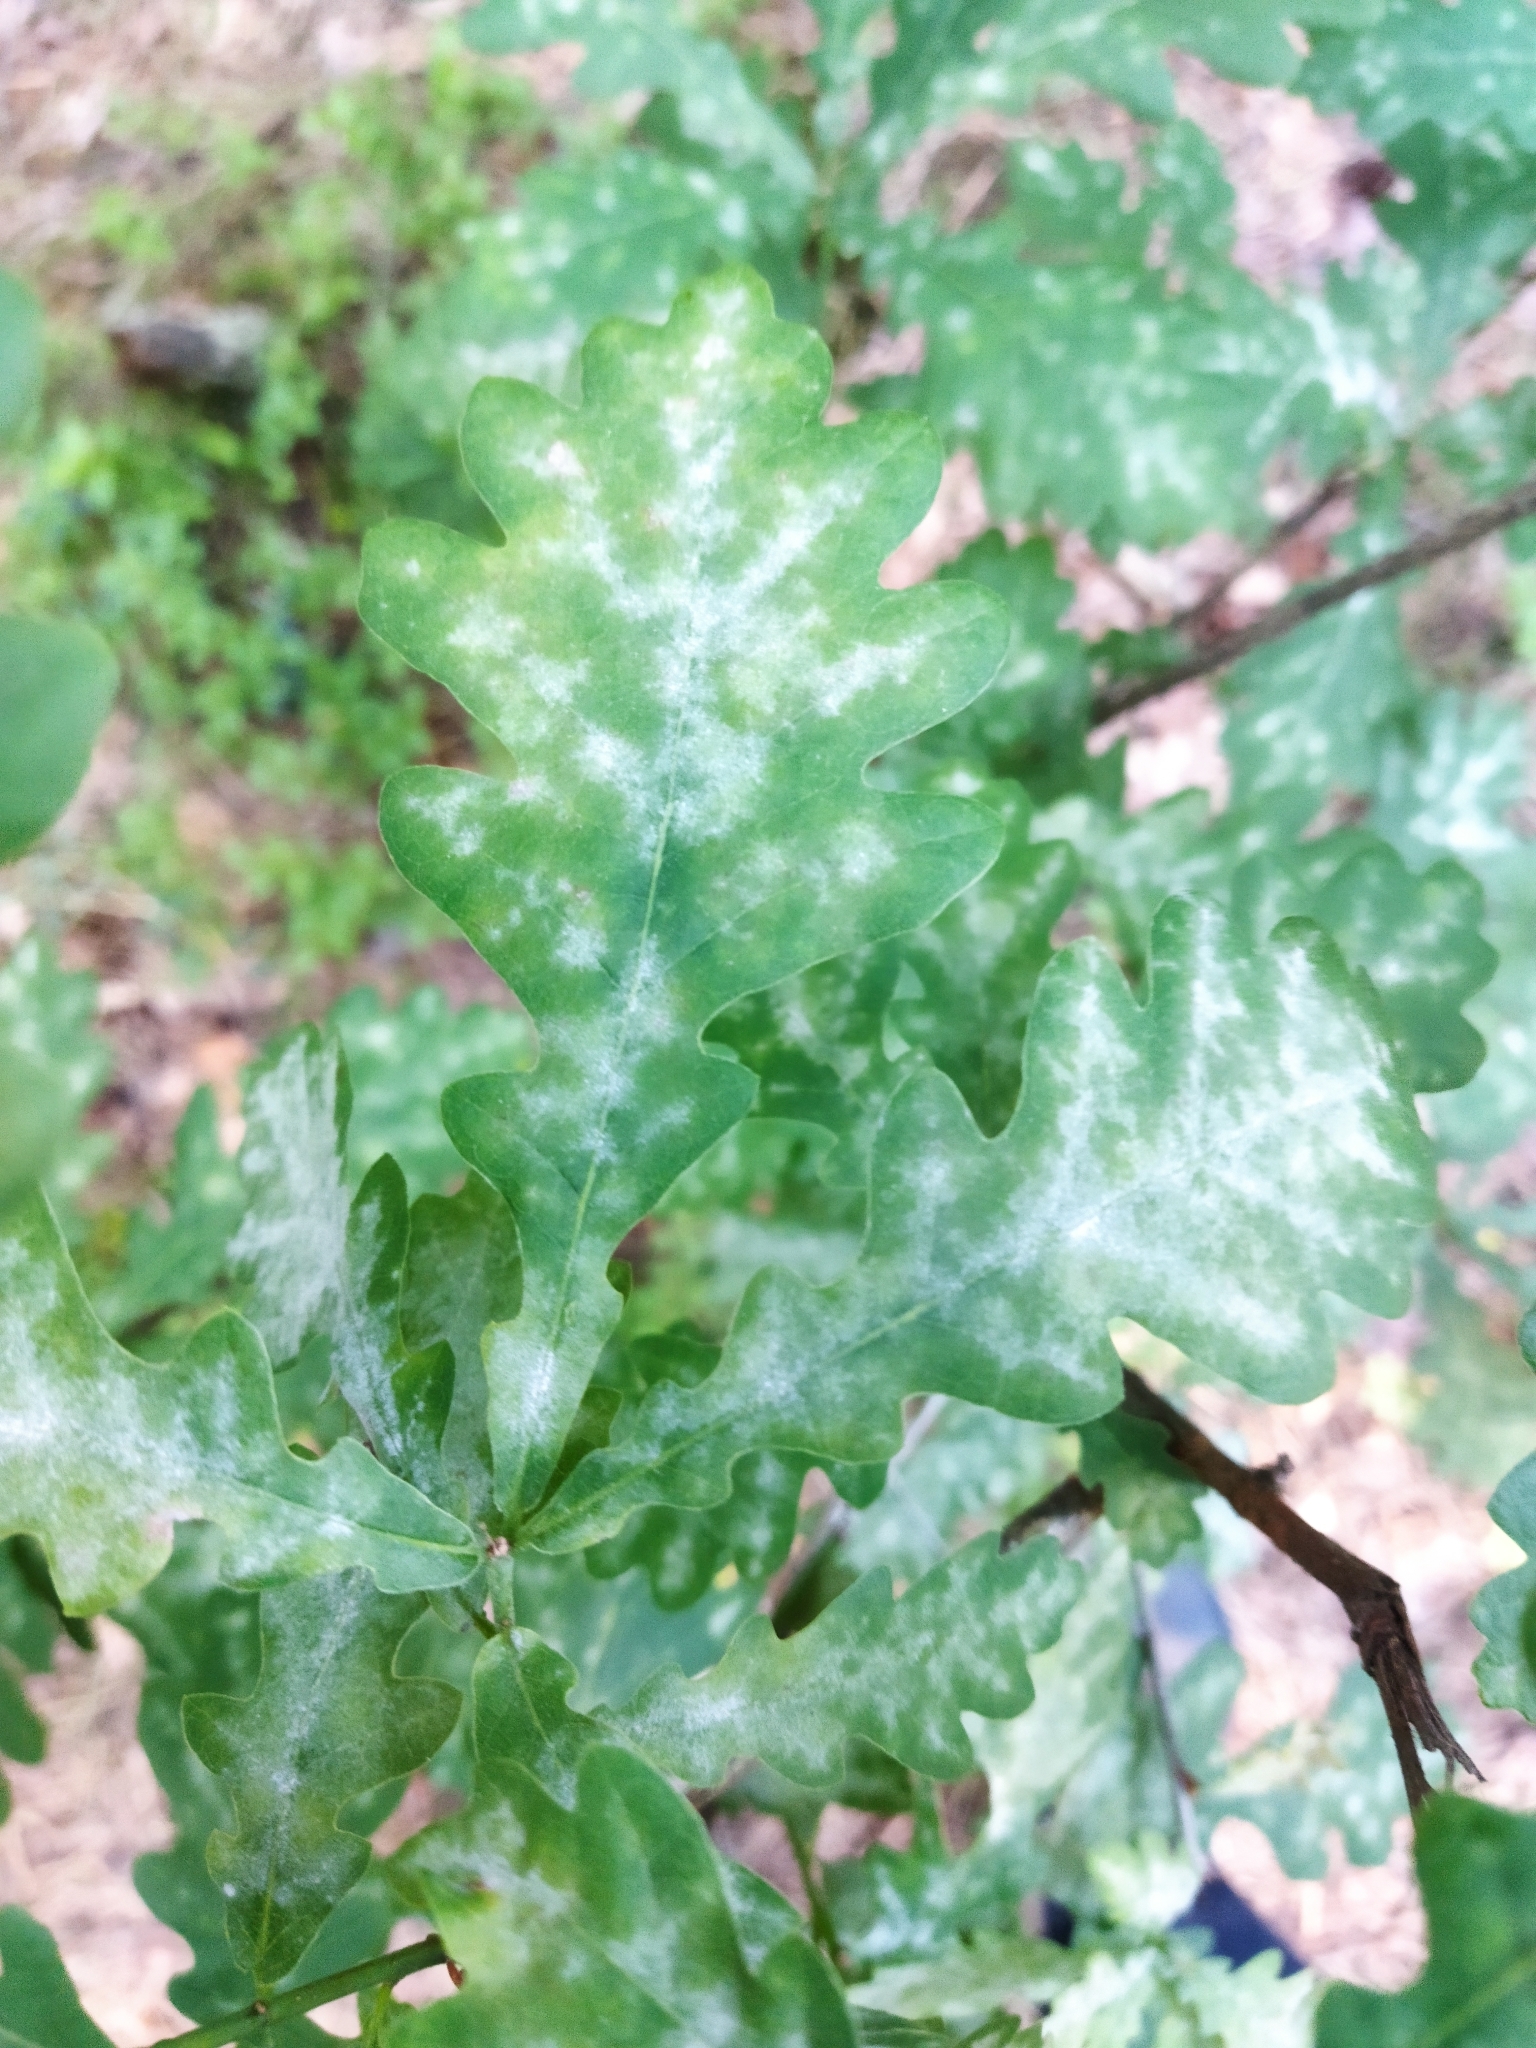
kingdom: Fungi
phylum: Ascomycota
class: Leotiomycetes
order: Helotiales
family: Erysiphaceae
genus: Erysiphe
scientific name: Erysiphe alphitoides
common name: Oak mildew
